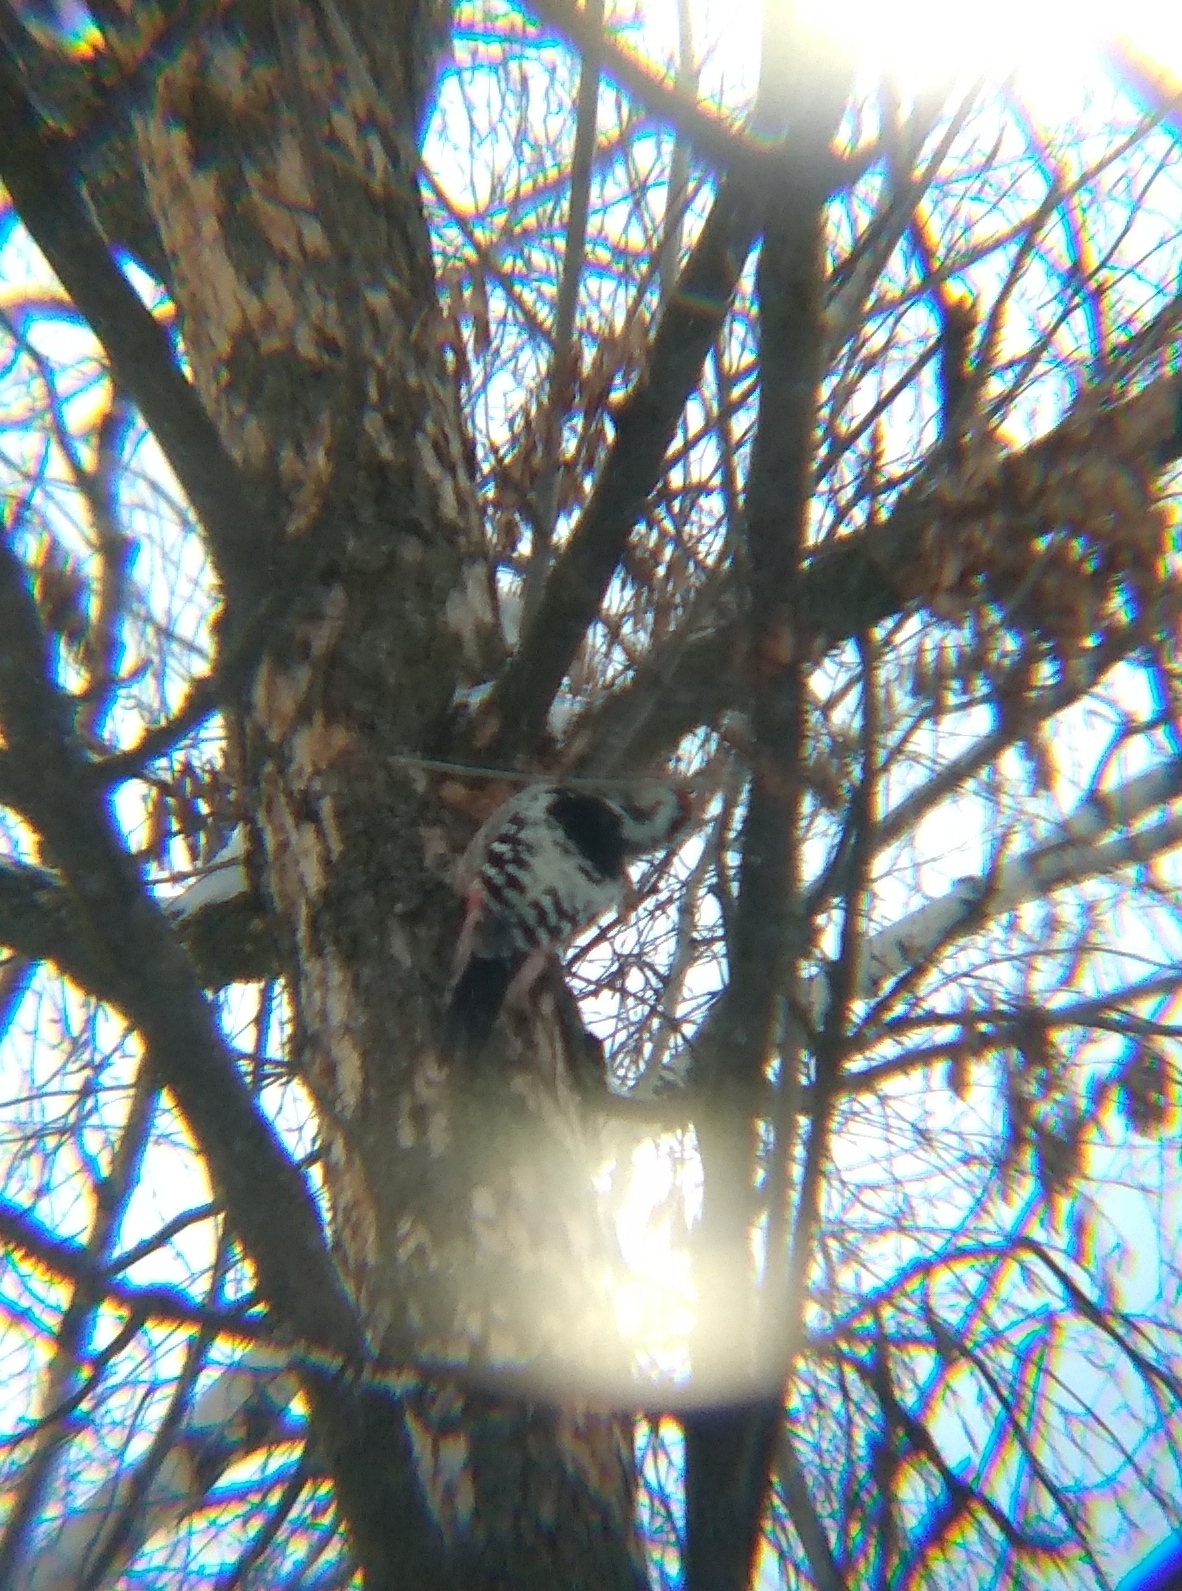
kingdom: Animalia
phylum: Chordata
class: Aves
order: Piciformes
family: Picidae
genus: Dendrocopos
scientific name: Dendrocopos leucotos
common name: White-backed woodpecker
